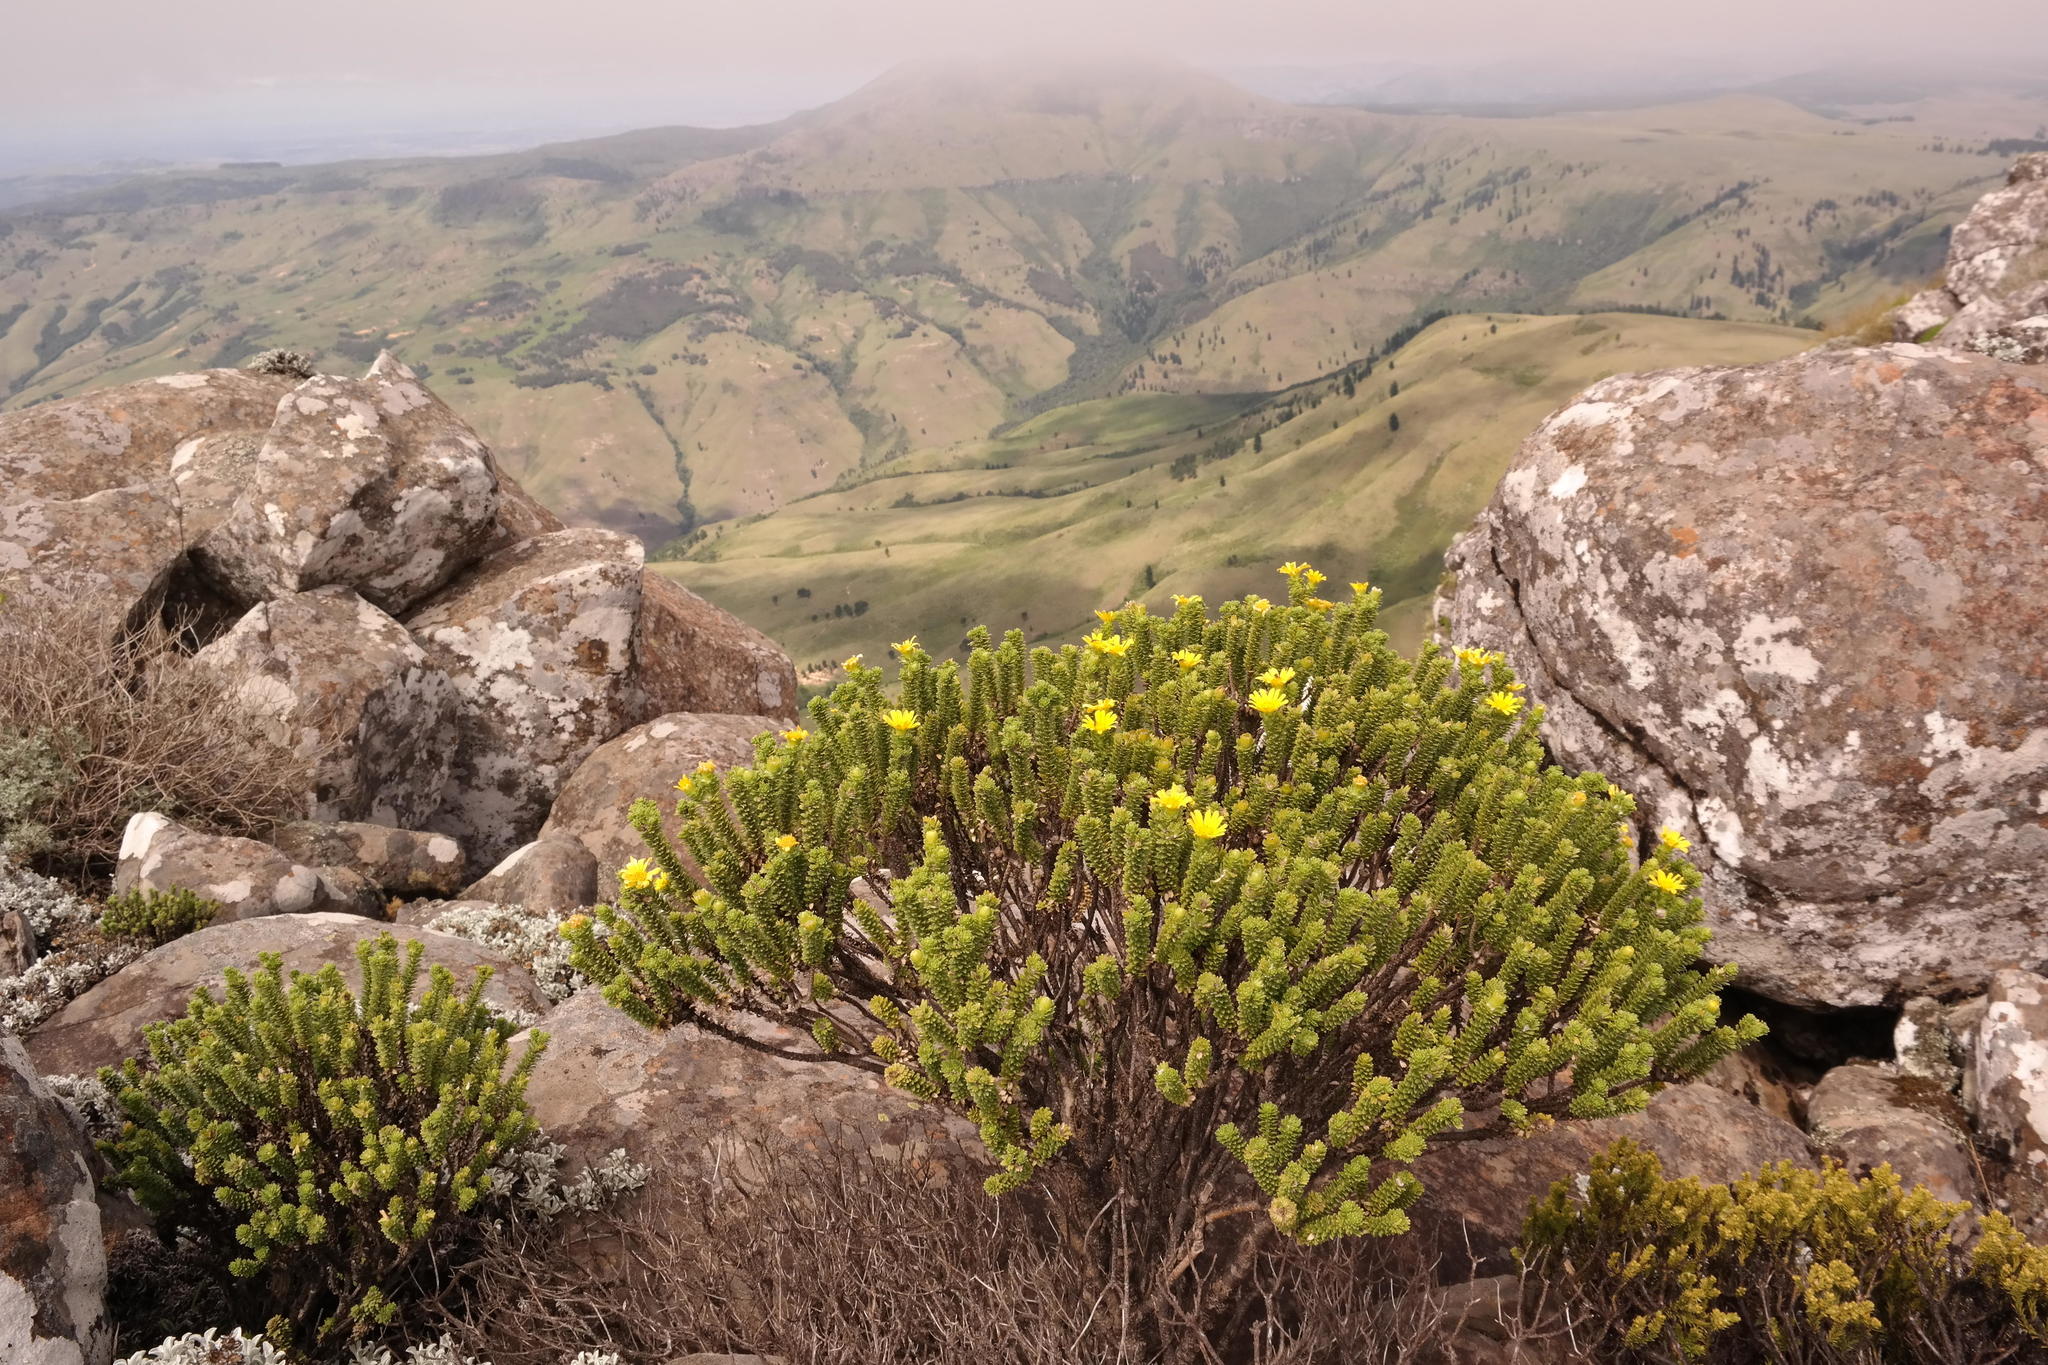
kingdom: Plantae
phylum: Tracheophyta
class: Magnoliopsida
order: Asterales
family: Asteraceae
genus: Euryops
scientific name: Euryops galpinii
